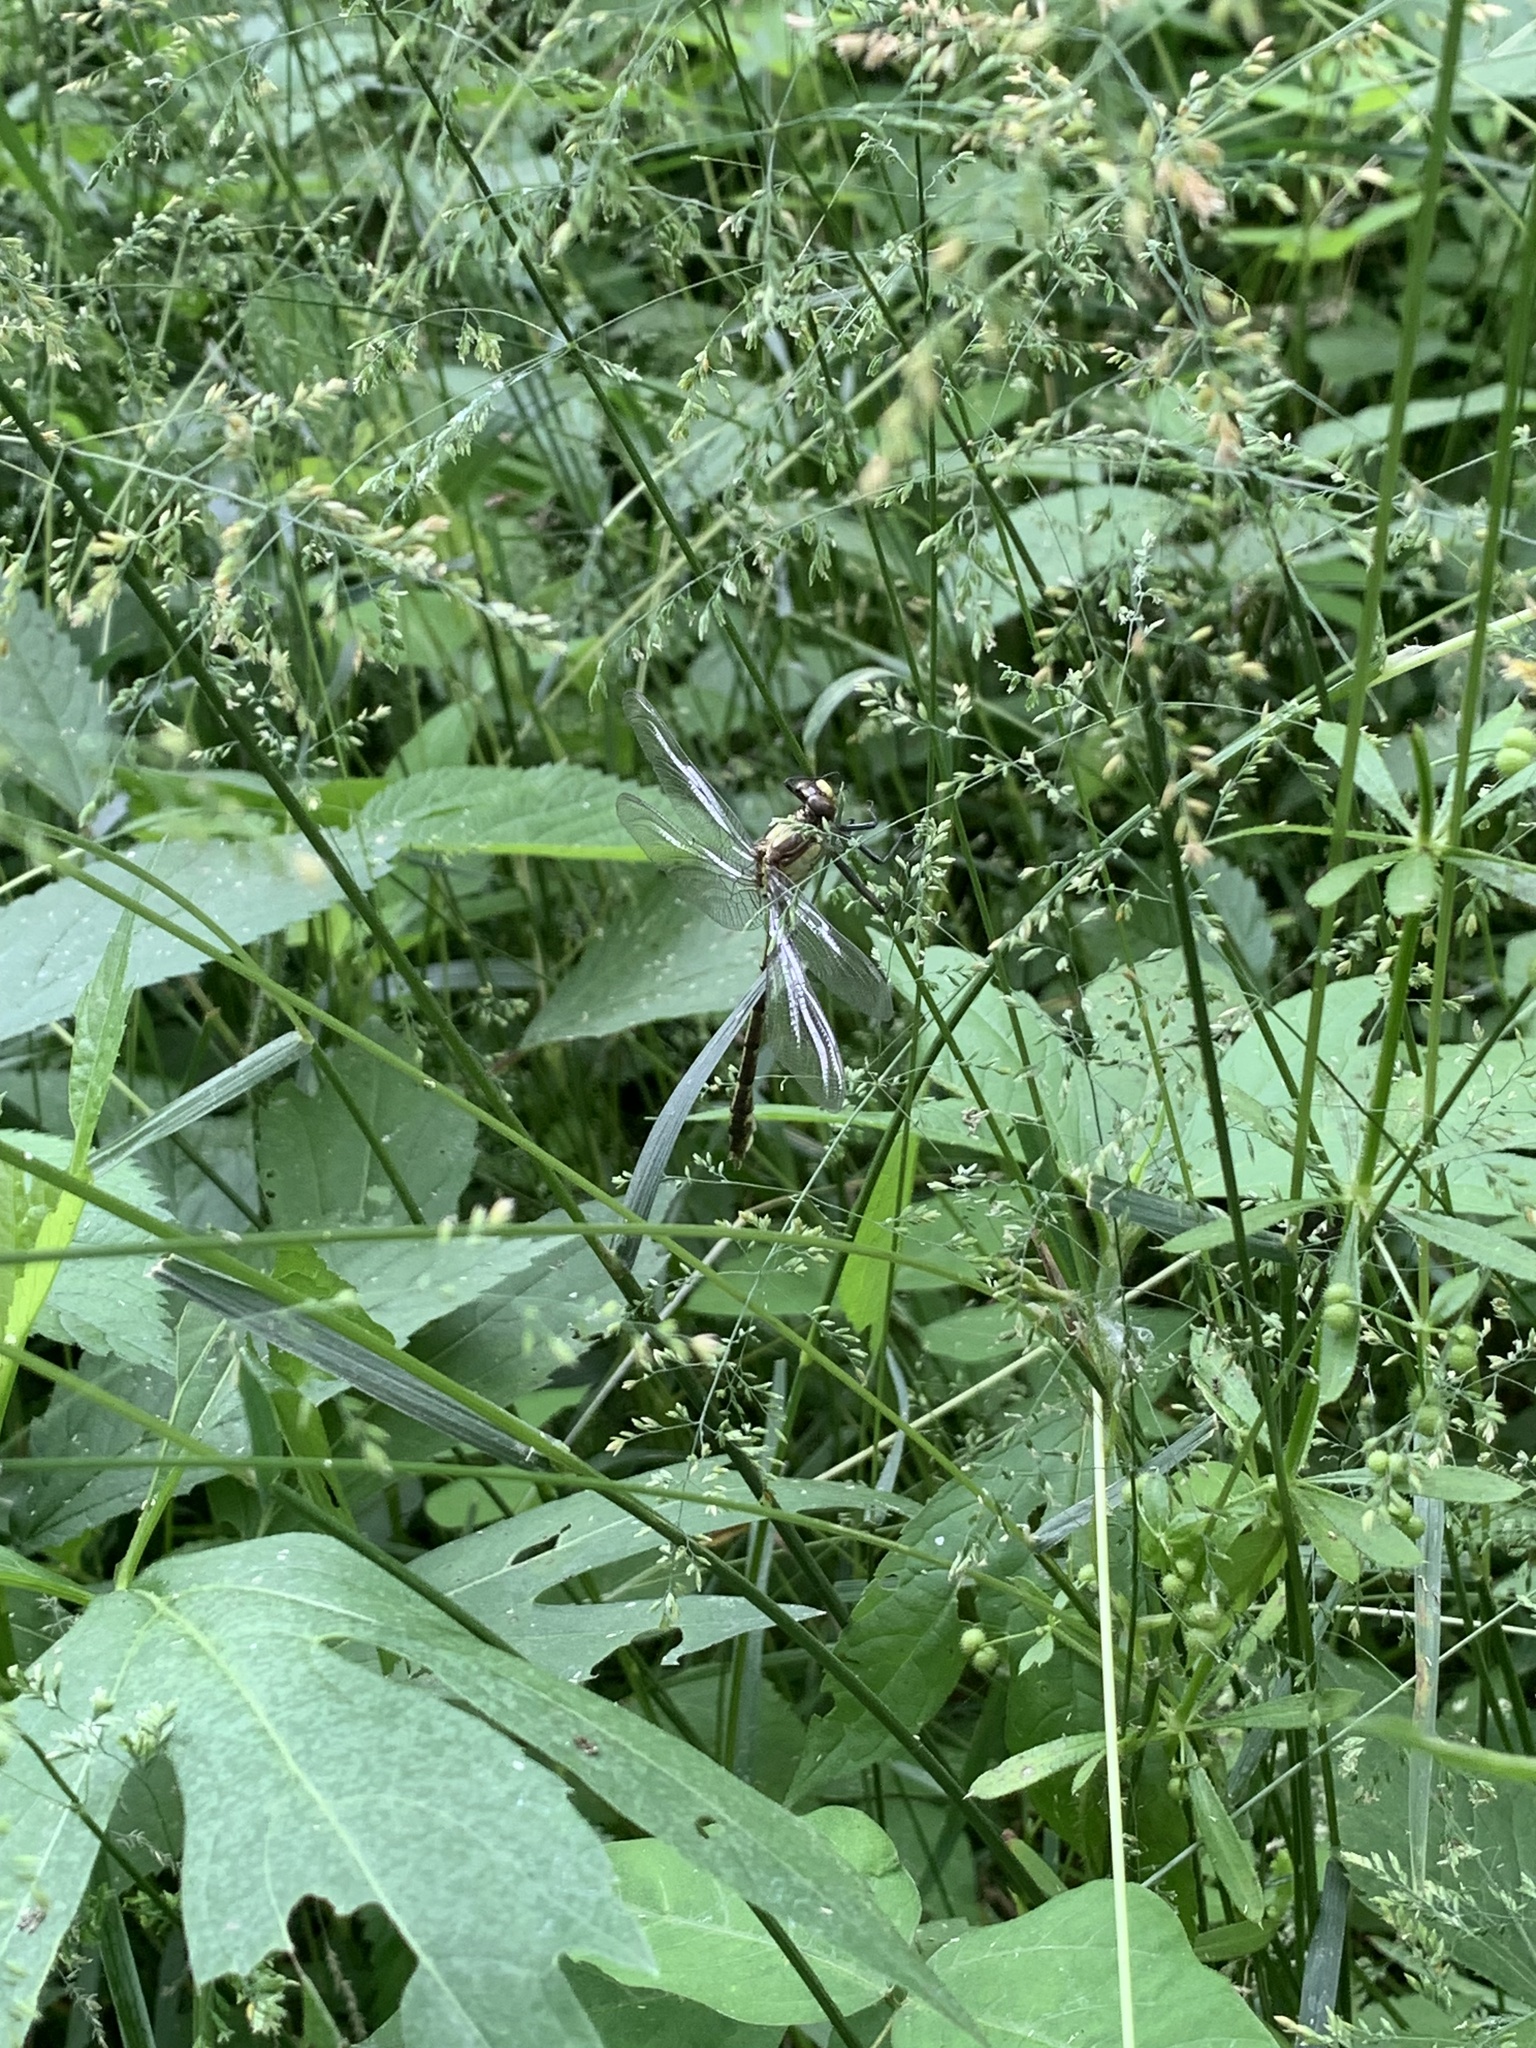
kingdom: Animalia
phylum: Arthropoda
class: Insecta
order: Odonata
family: Gomphidae
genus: Dromogomphus
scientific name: Dromogomphus spinosus
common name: Black-shouldered spinyleg
